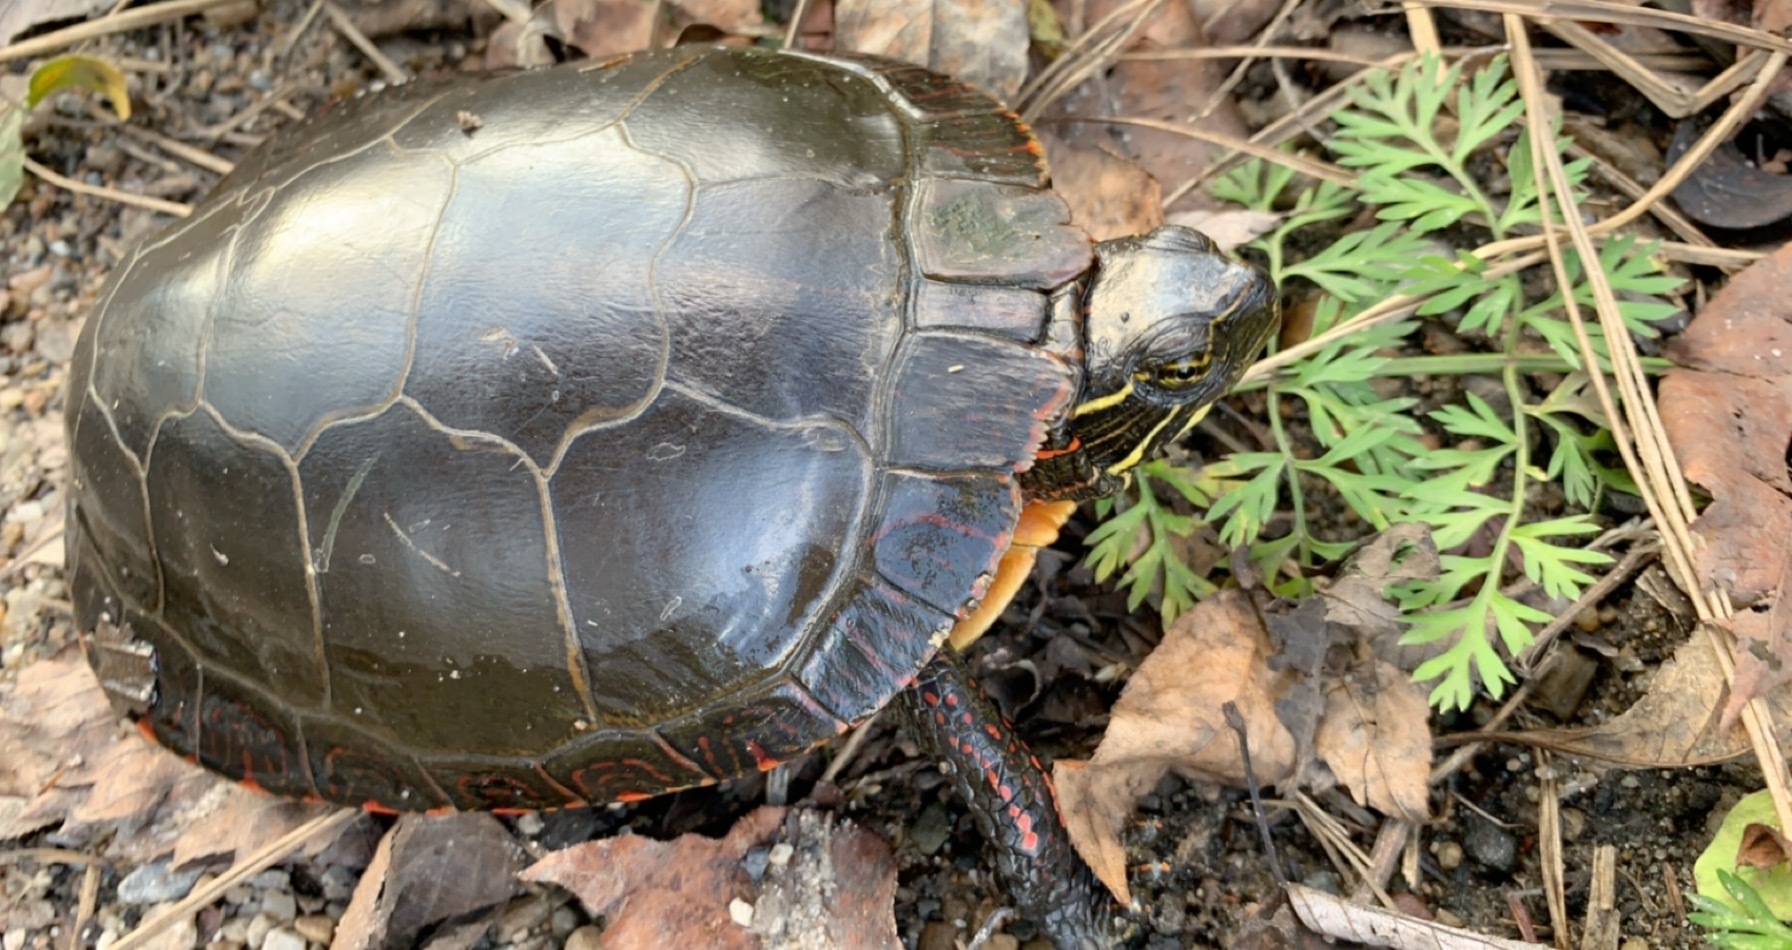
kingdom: Animalia
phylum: Chordata
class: Testudines
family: Emydidae
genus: Chrysemys
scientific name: Chrysemys picta
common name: Painted turtle
